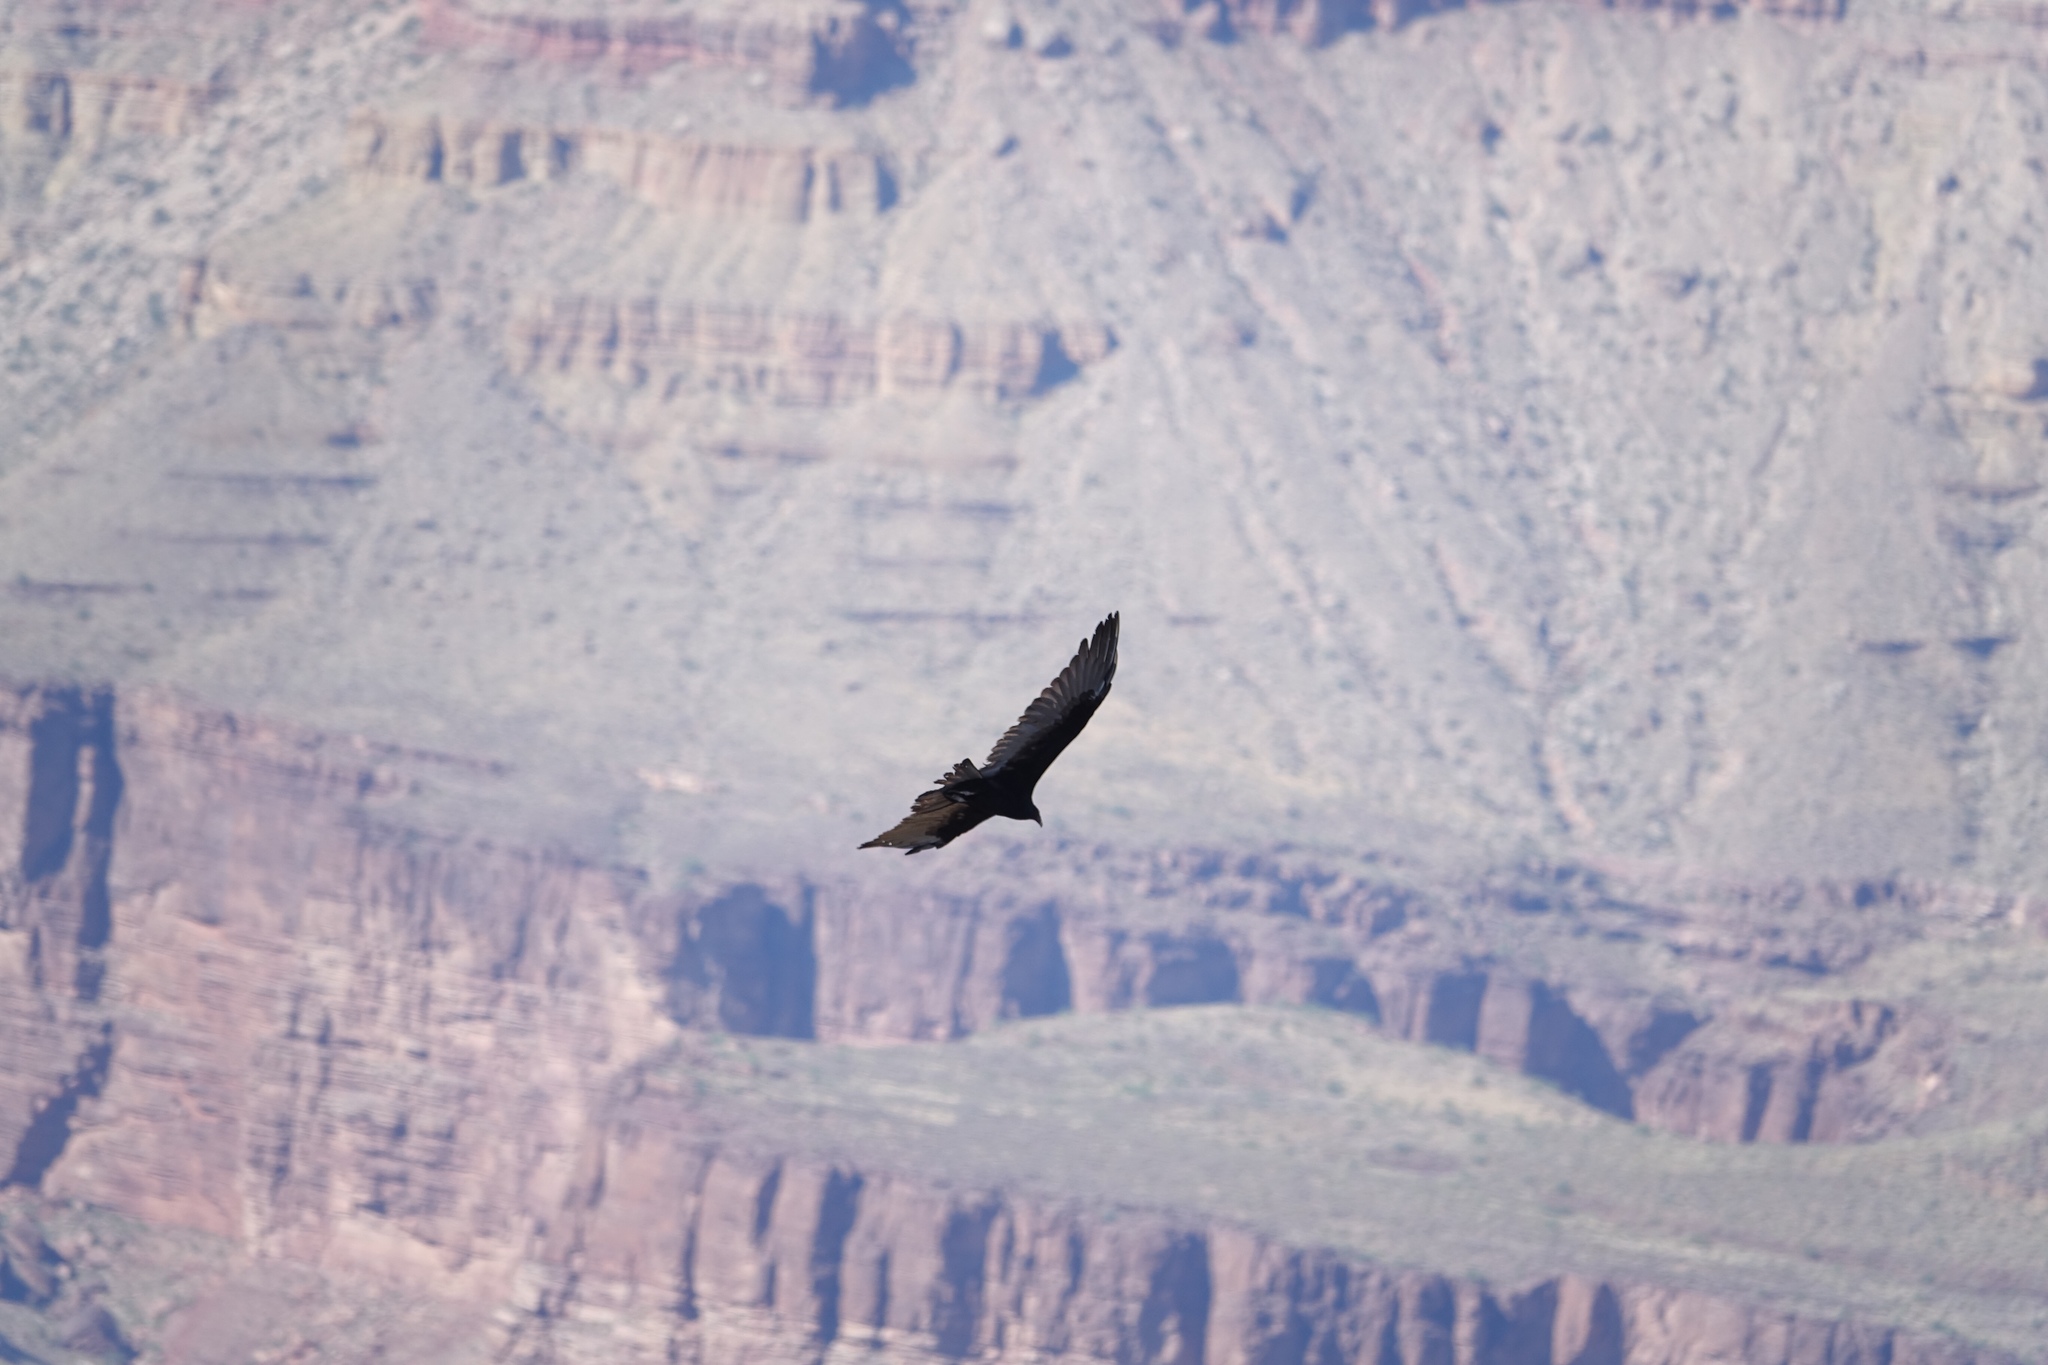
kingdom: Animalia
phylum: Chordata
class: Aves
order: Accipitriformes
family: Cathartidae
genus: Cathartes
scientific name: Cathartes aura
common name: Turkey vulture
